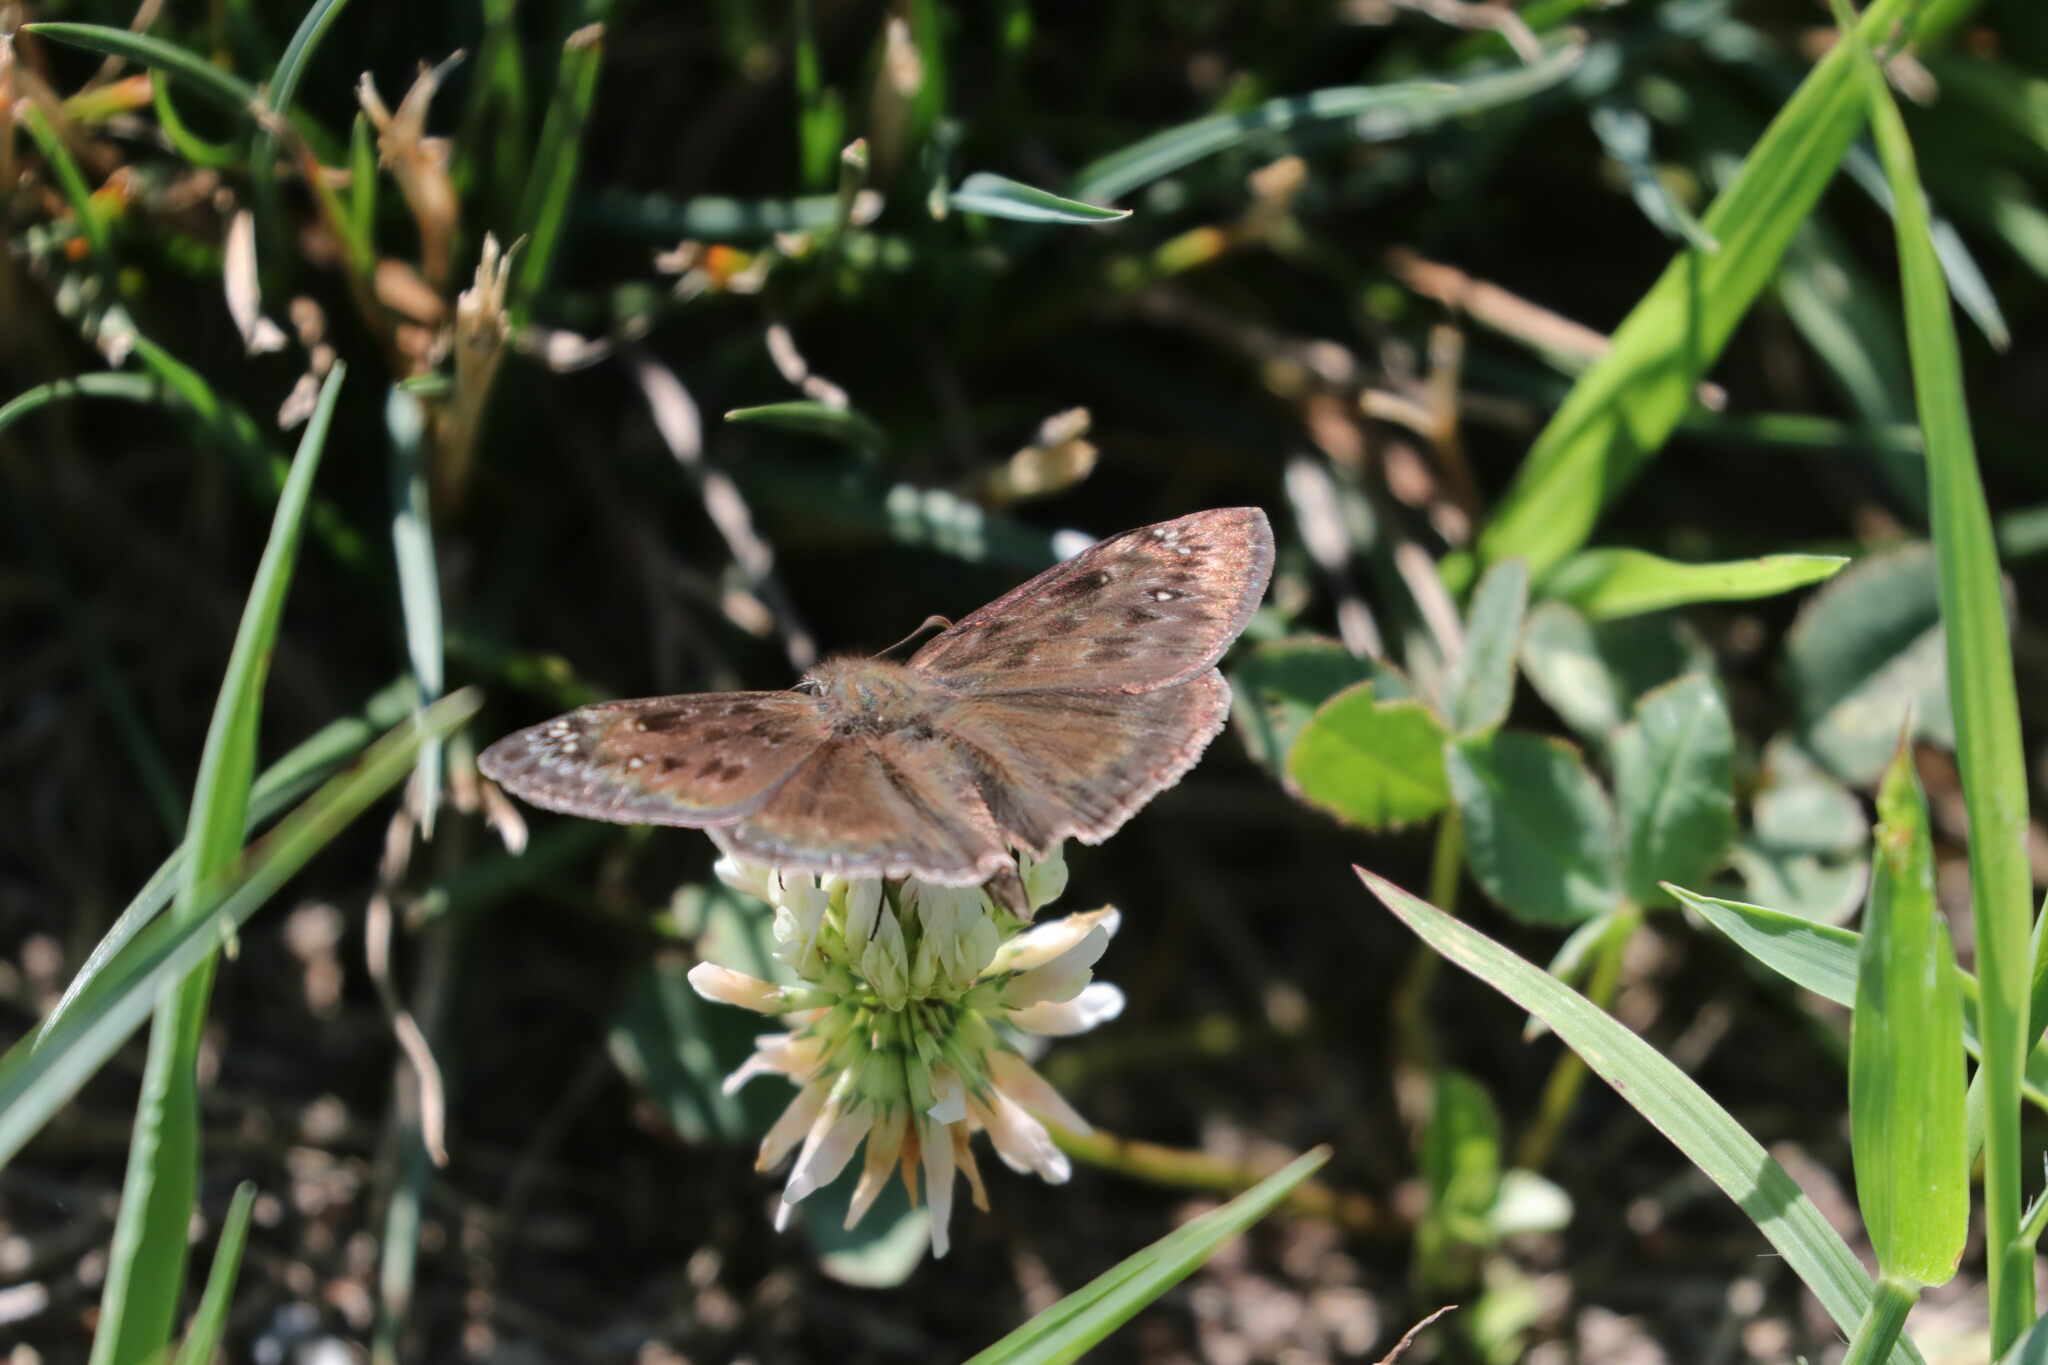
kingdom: Animalia
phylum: Arthropoda
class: Insecta
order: Lepidoptera
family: Hesperiidae
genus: Erynnis
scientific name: Erynnis horatius
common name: Horace's duskywing
